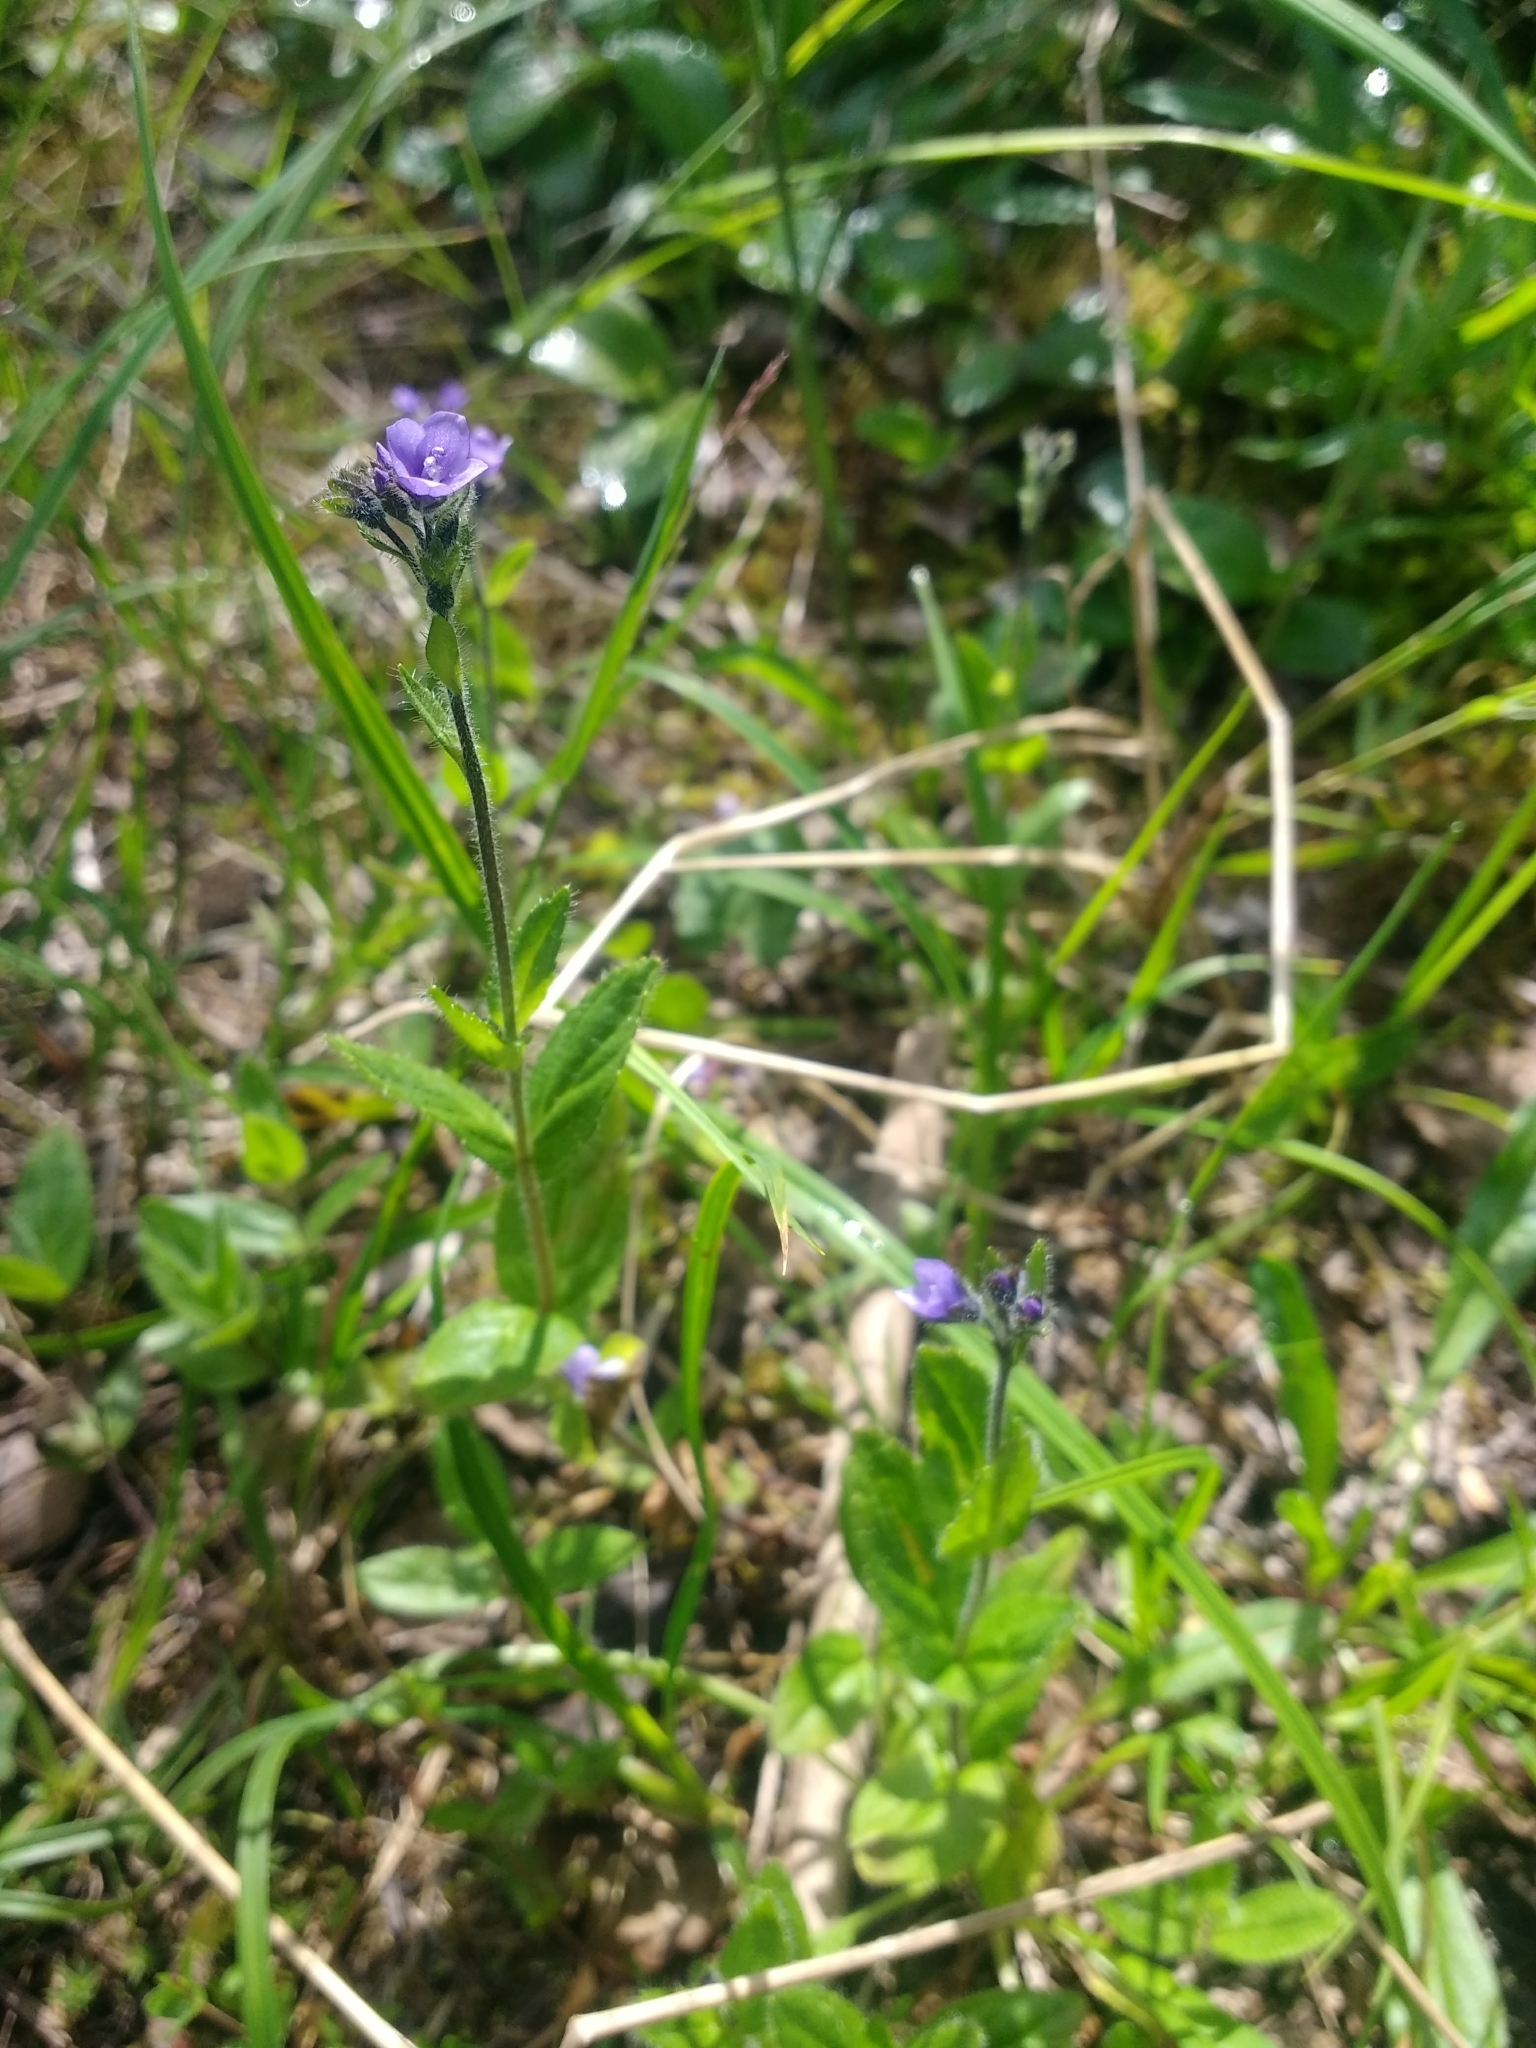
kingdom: Plantae
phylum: Tracheophyta
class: Magnoliopsida
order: Lamiales
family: Plantaginaceae
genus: Veronica
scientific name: Veronica wormskjoldii
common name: American alpine speedwell
